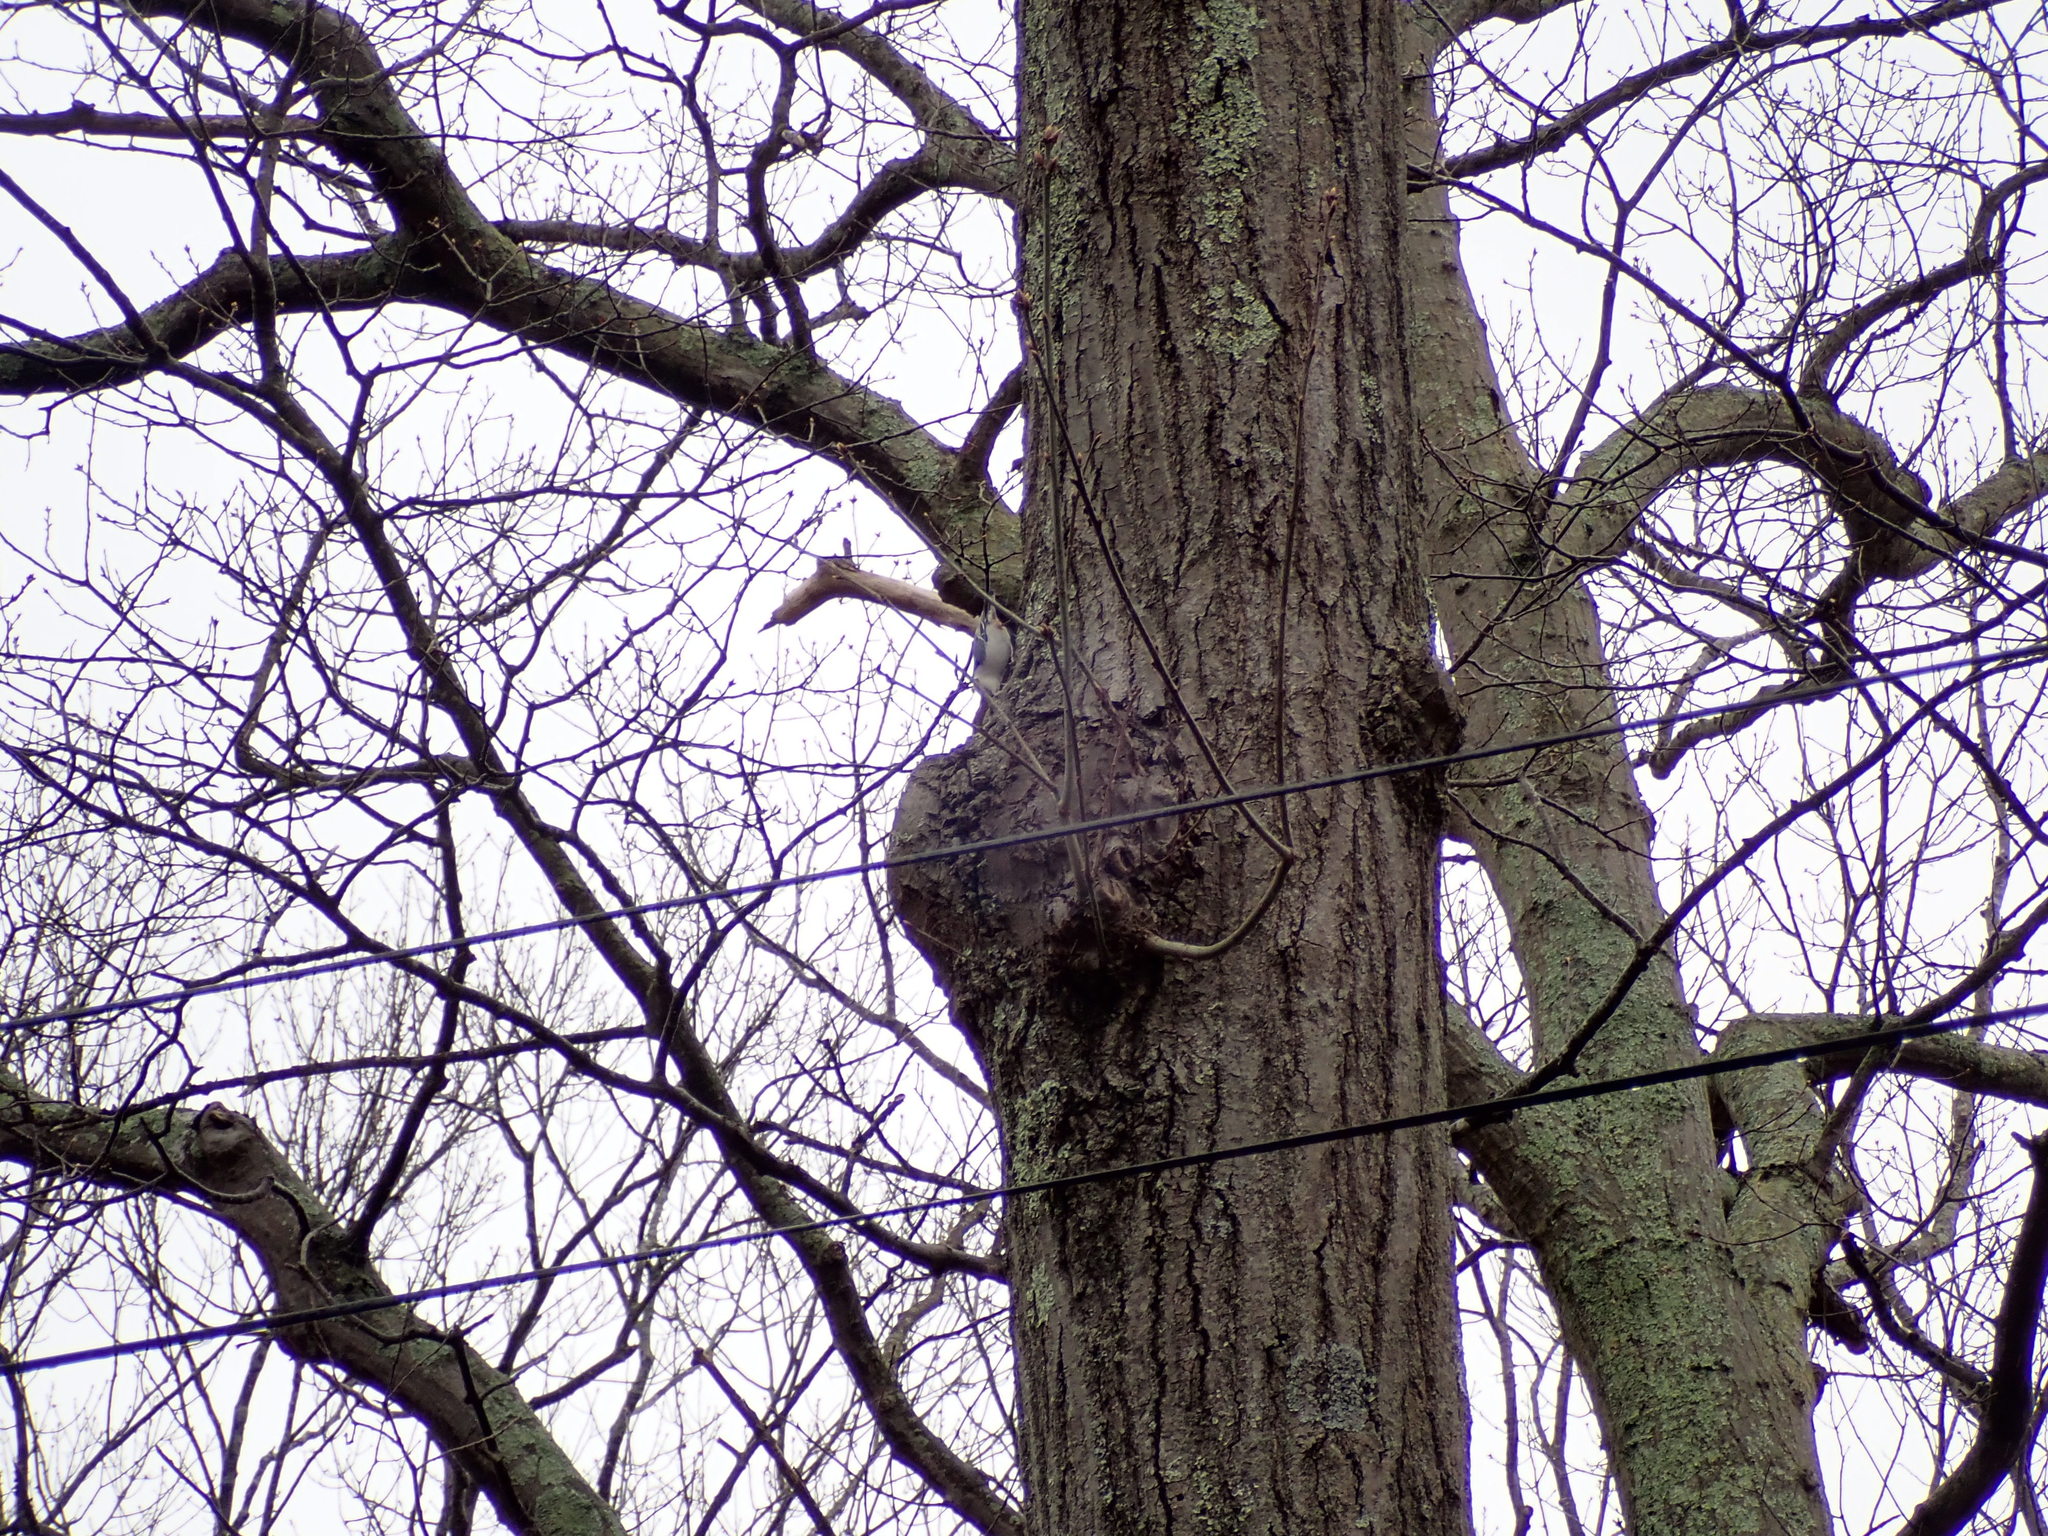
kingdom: Animalia
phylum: Chordata
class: Aves
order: Passeriformes
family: Sittidae
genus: Sitta
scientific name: Sitta carolinensis
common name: White-breasted nuthatch
